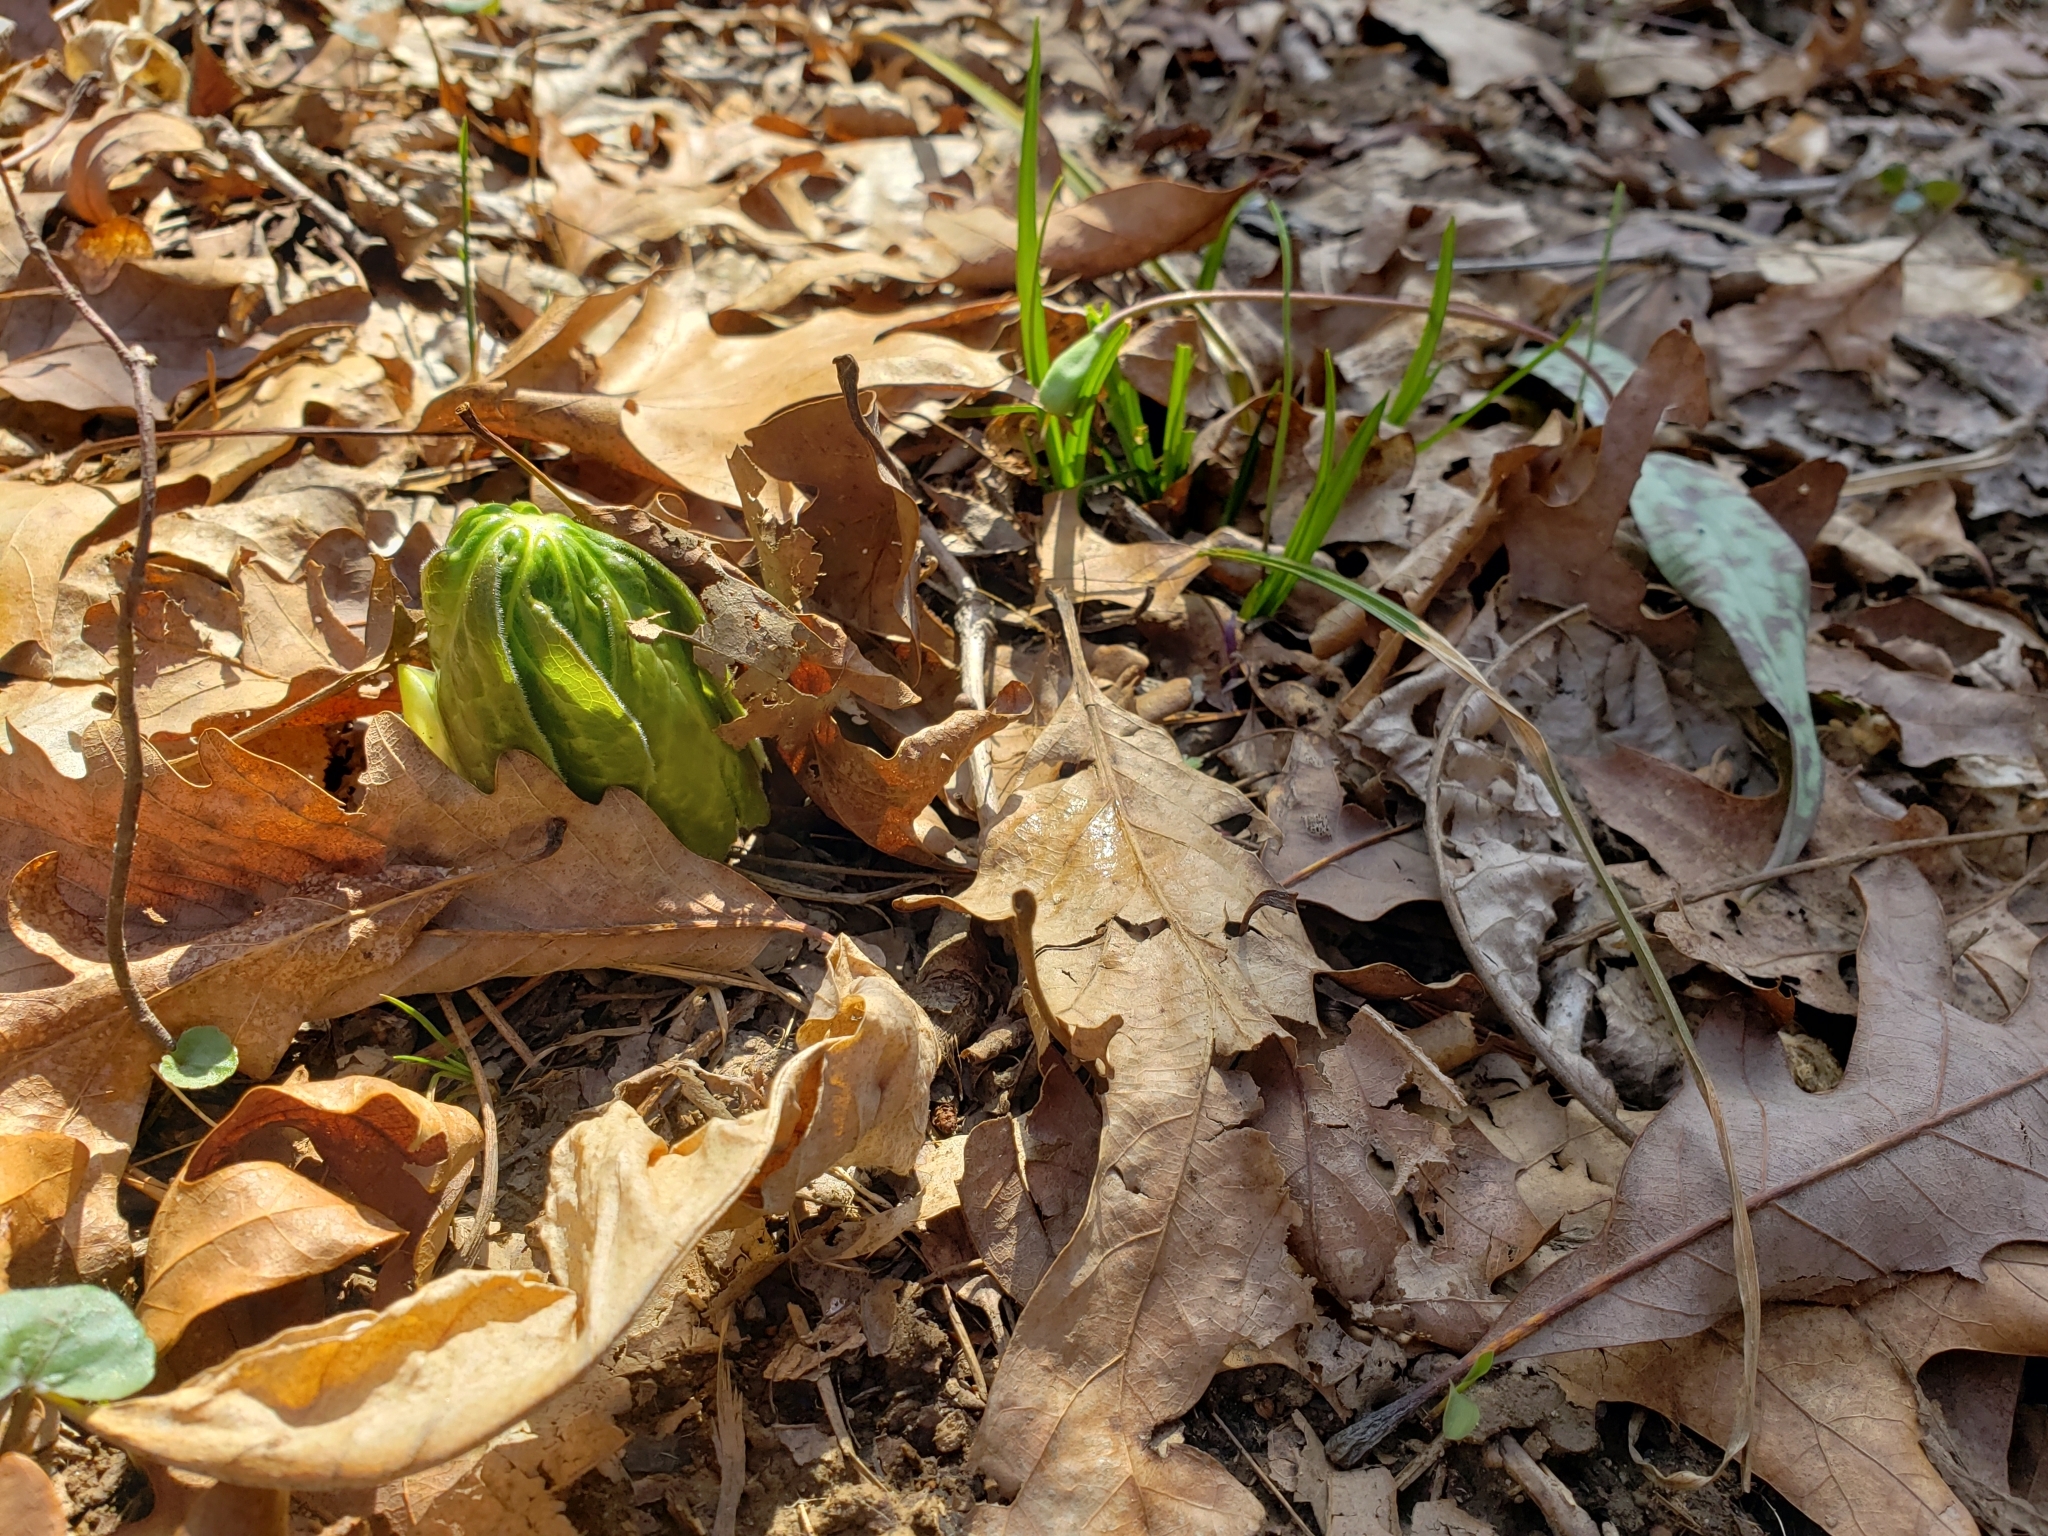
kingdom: Plantae
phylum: Tracheophyta
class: Magnoliopsida
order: Ranunculales
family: Berberidaceae
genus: Podophyllum
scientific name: Podophyllum peltatum
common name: Wild mandrake
